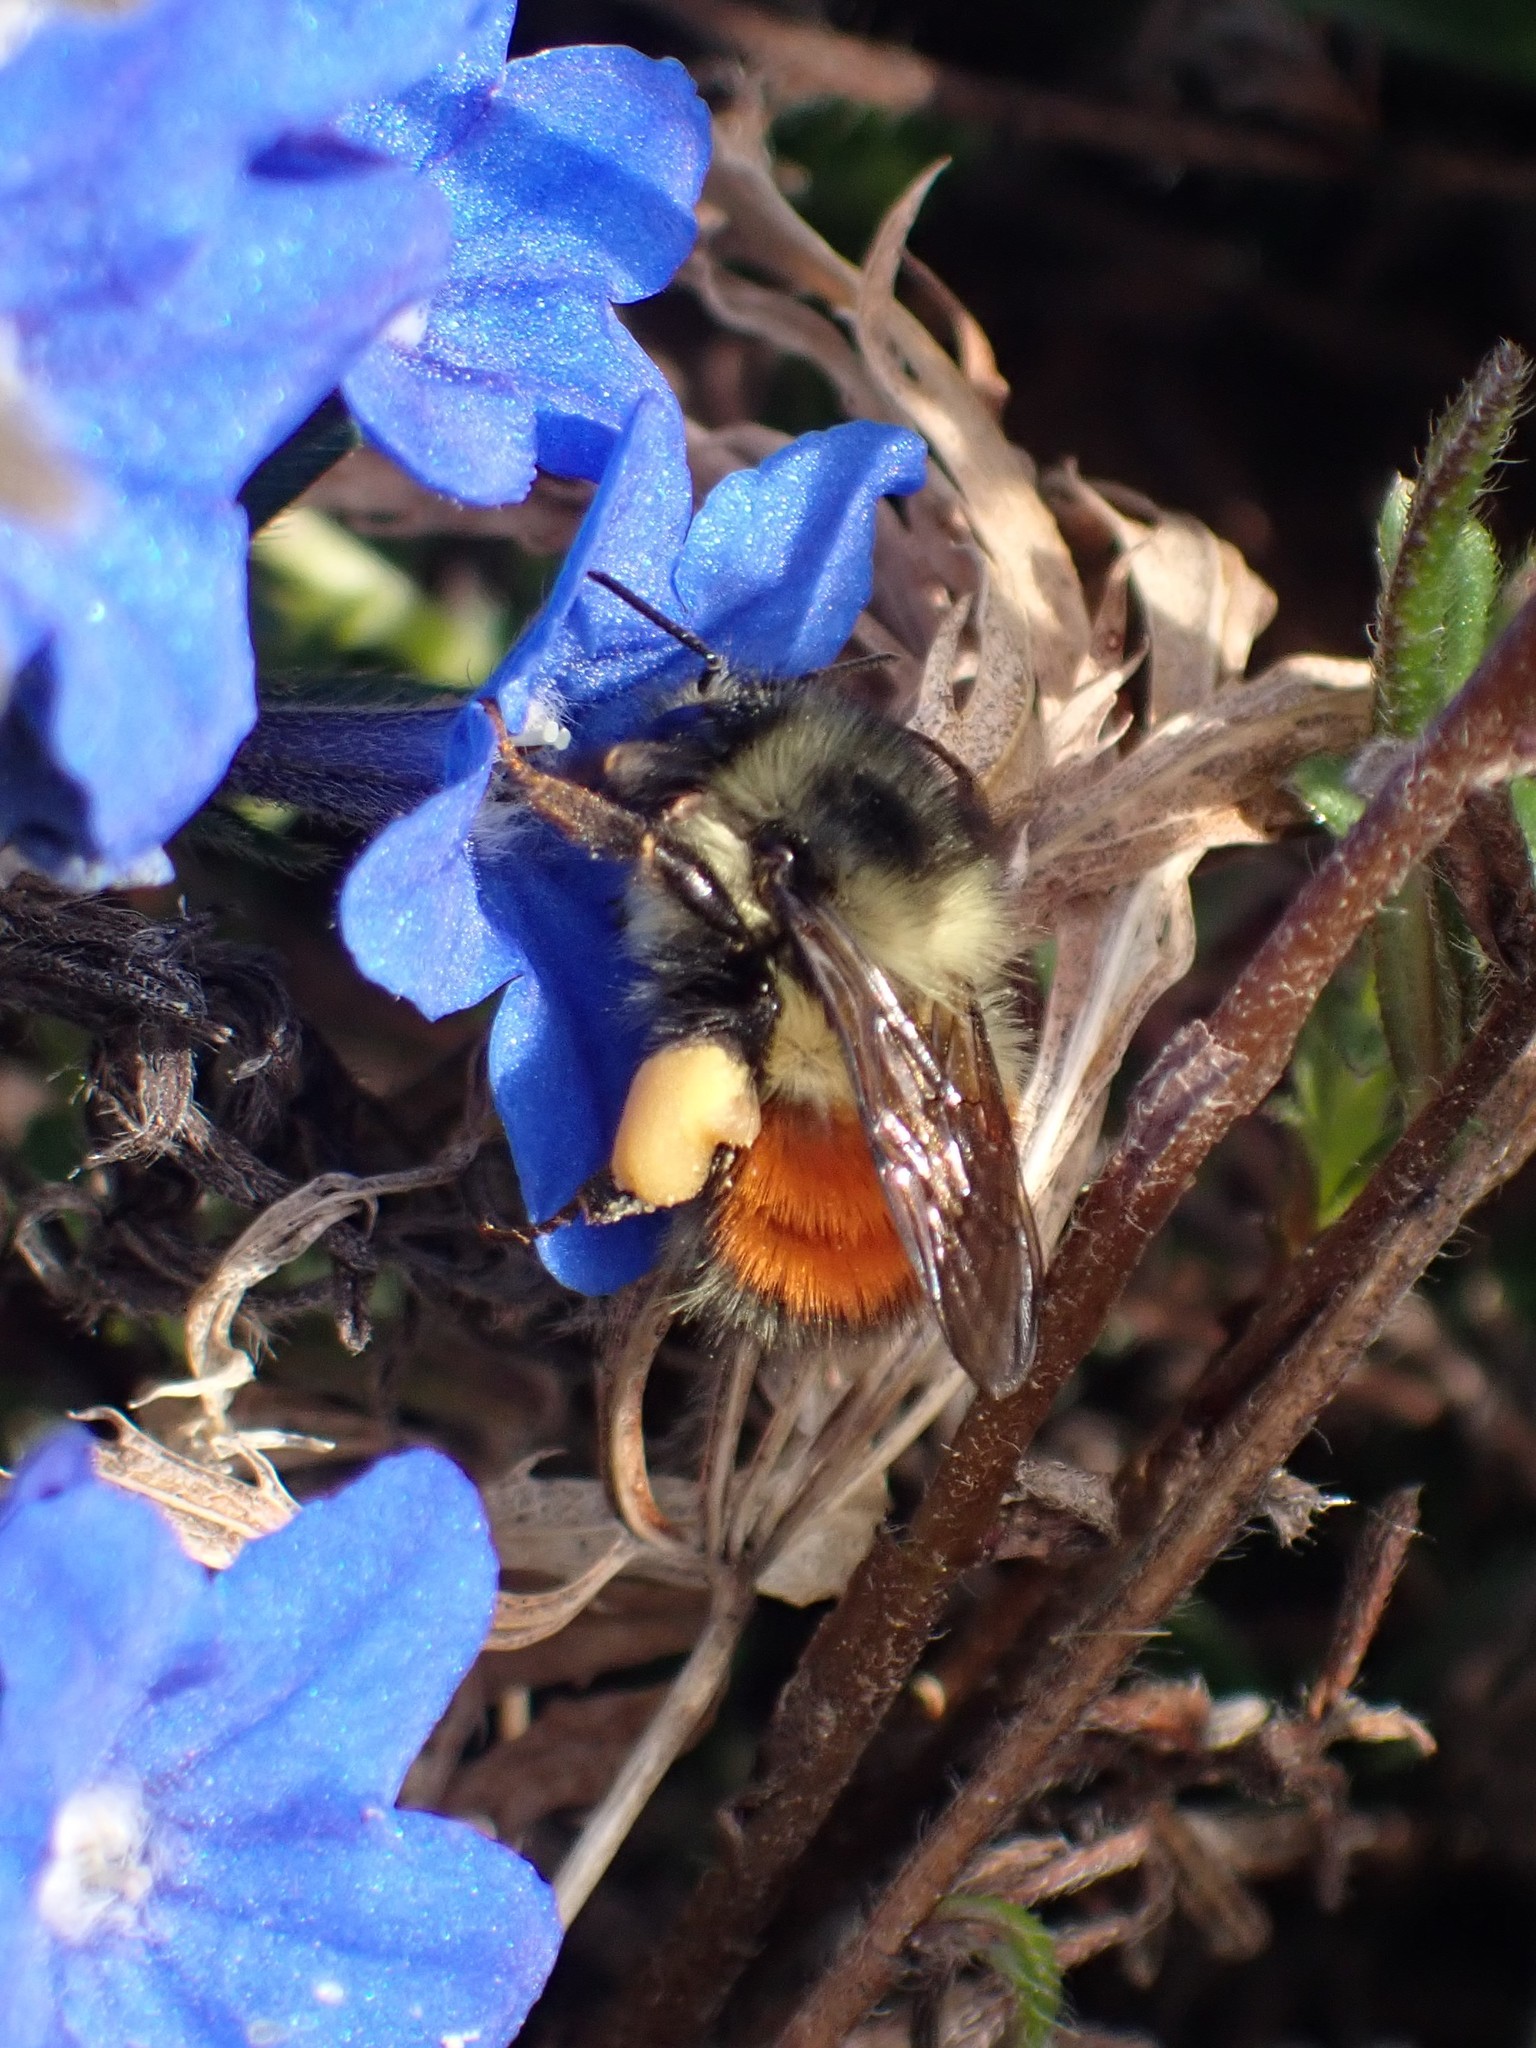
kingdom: Animalia
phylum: Arthropoda
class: Insecta
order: Hymenoptera
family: Apidae
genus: Bombus
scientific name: Bombus melanopygus
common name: Black tail bumble bee
